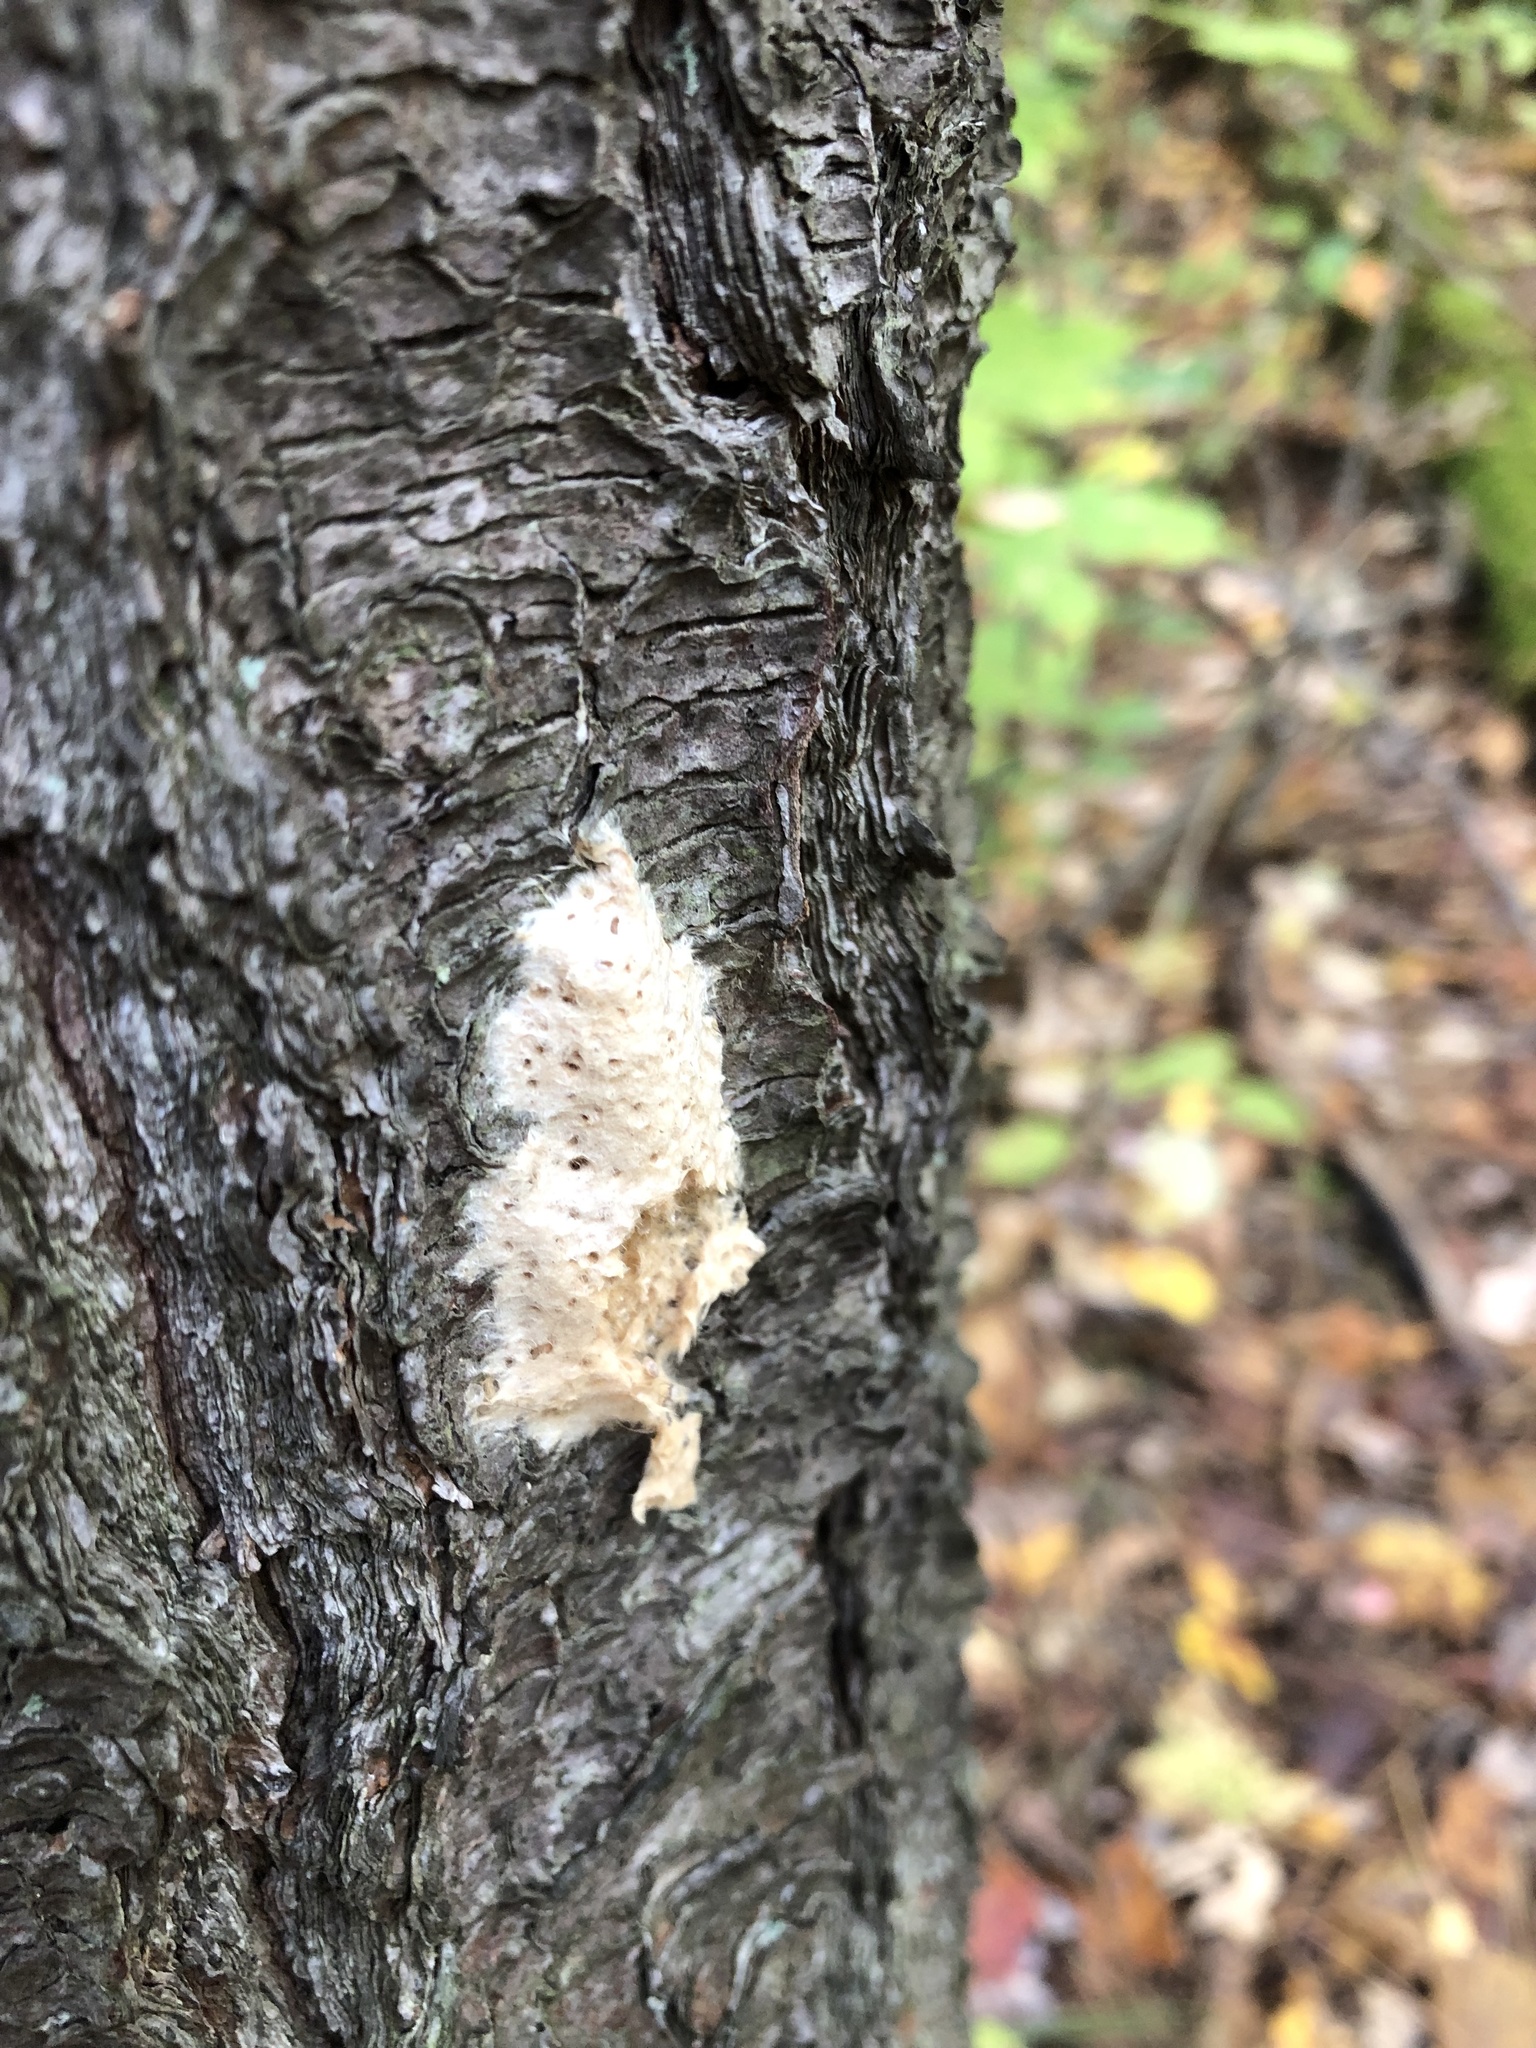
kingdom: Animalia
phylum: Arthropoda
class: Insecta
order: Lepidoptera
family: Erebidae
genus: Lymantria
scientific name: Lymantria dispar
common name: Gypsy moth
